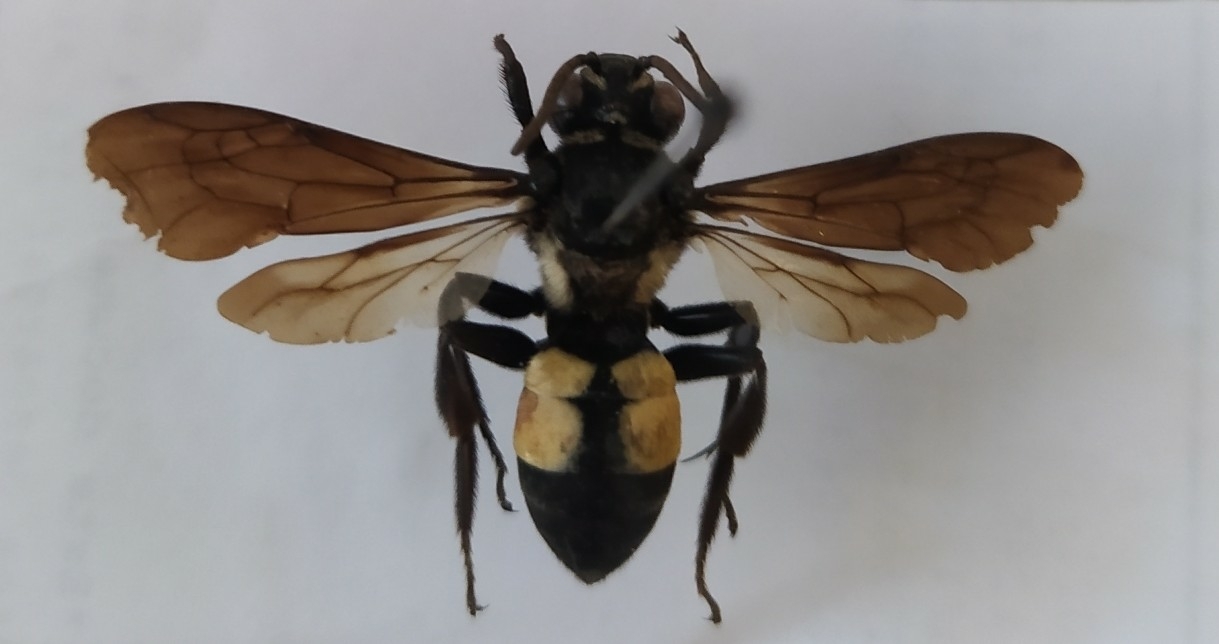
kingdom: Animalia
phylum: Arthropoda
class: Insecta
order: Hymenoptera
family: Apidae
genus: Rhathymus
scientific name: Rhathymus quadriplagiatus
